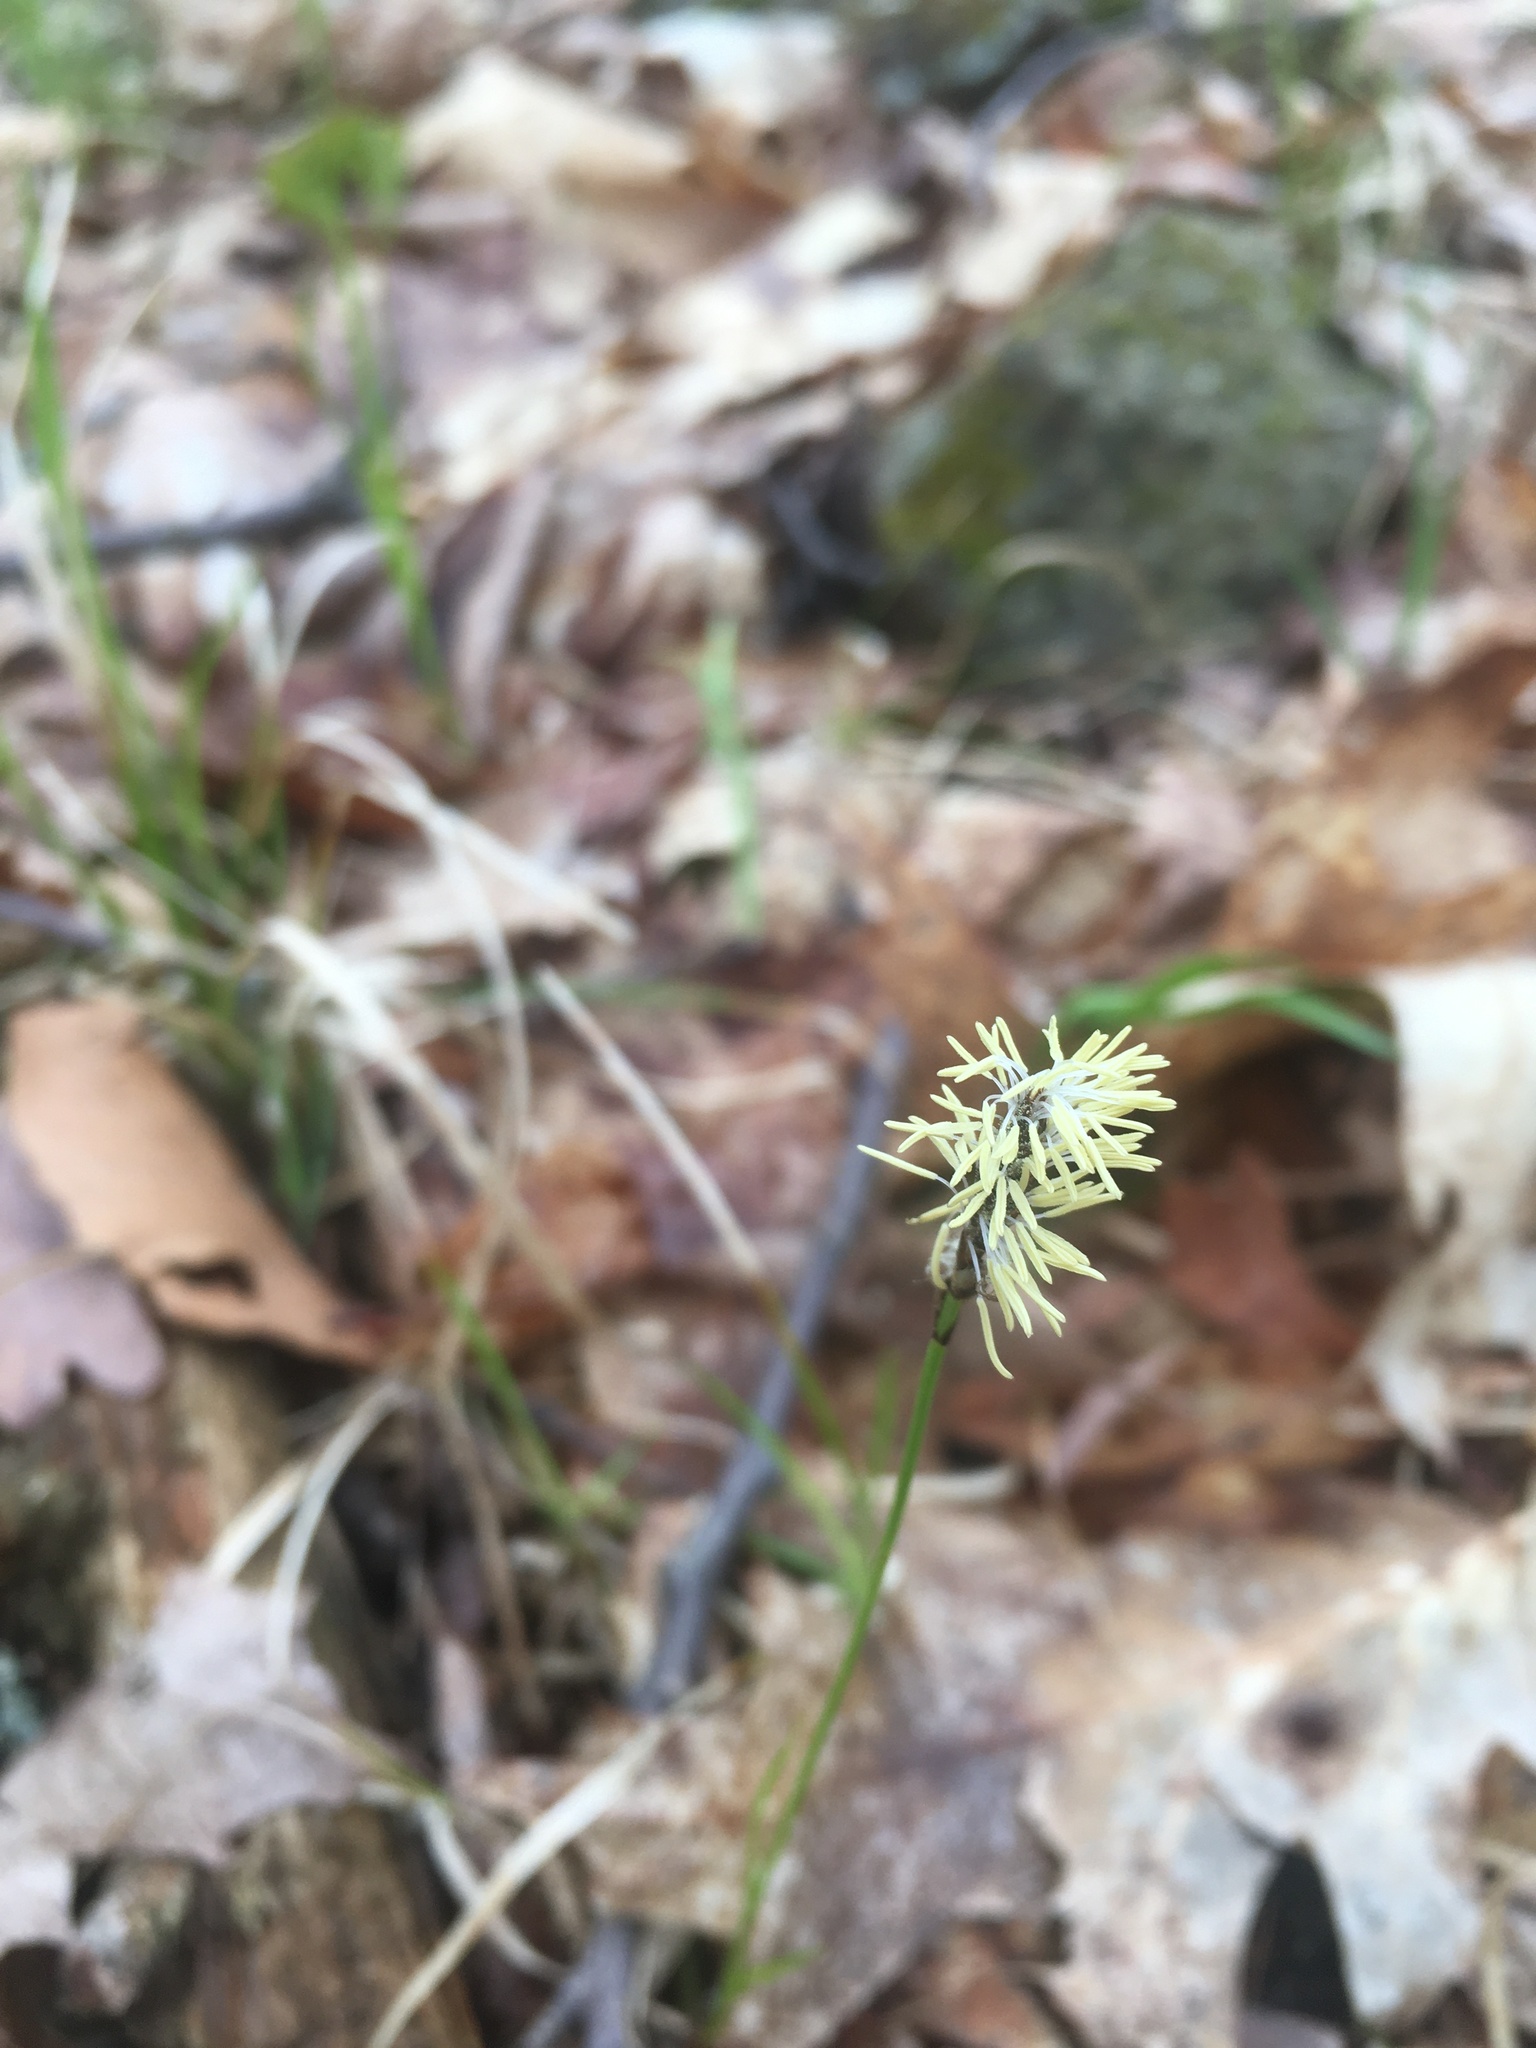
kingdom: Plantae
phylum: Tracheophyta
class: Liliopsida
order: Poales
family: Cyperaceae
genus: Carex
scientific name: Carex pensylvanica
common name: Common oak sedge
